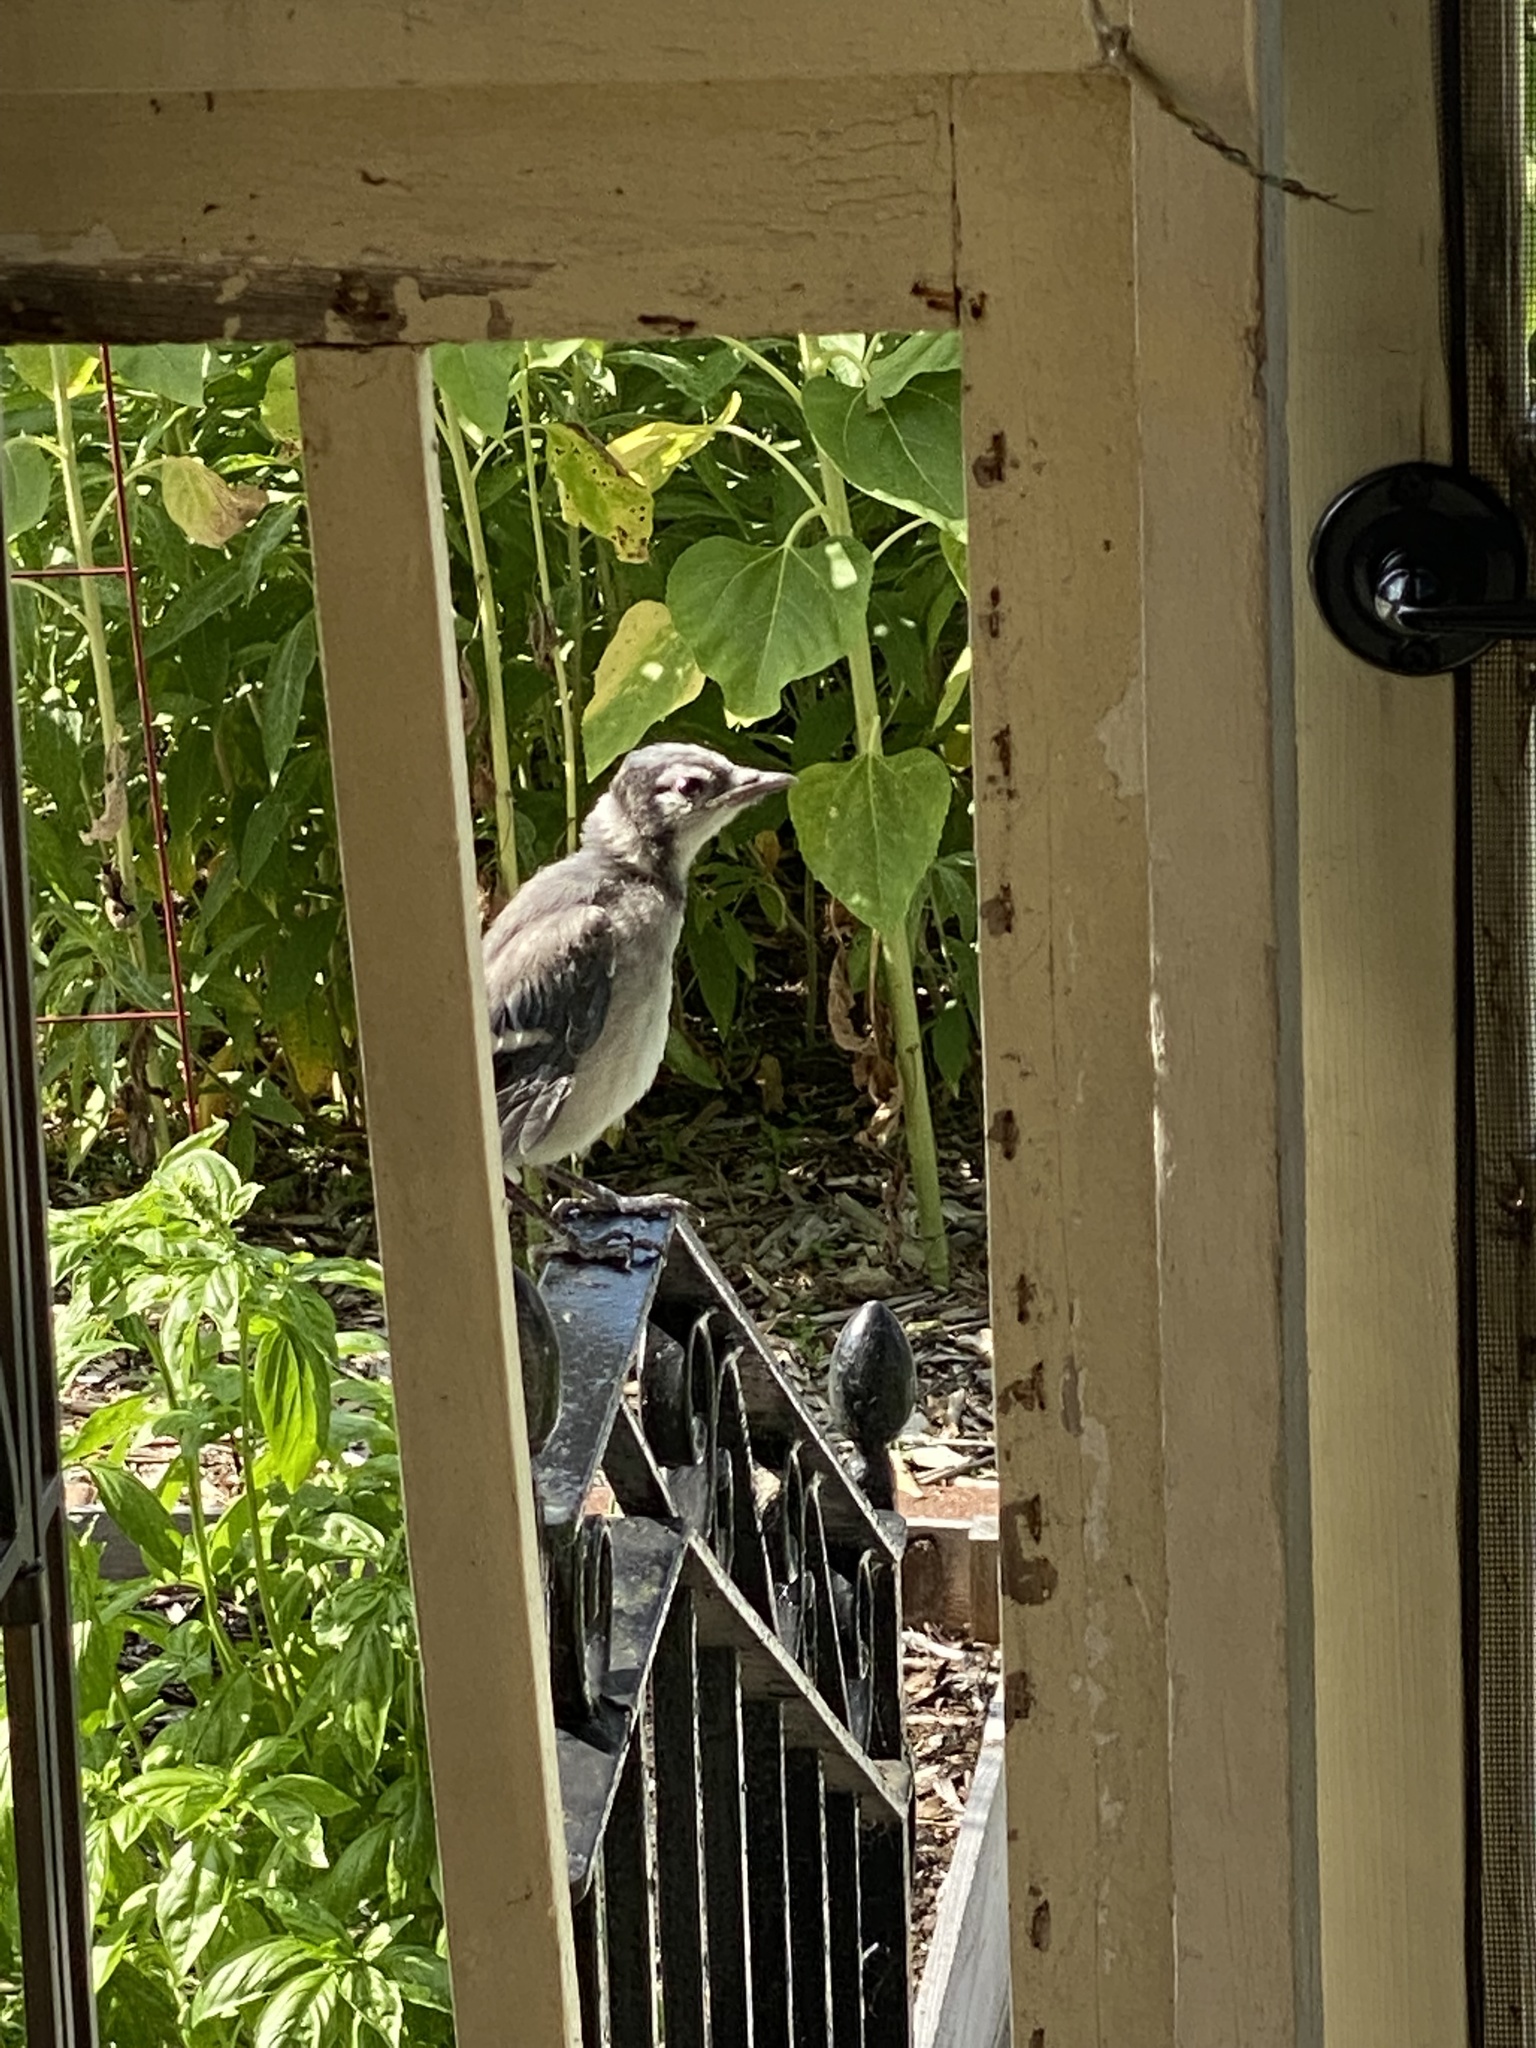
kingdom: Animalia
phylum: Chordata
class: Aves
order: Passeriformes
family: Corvidae
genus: Cyanocitta
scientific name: Cyanocitta cristata
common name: Blue jay
